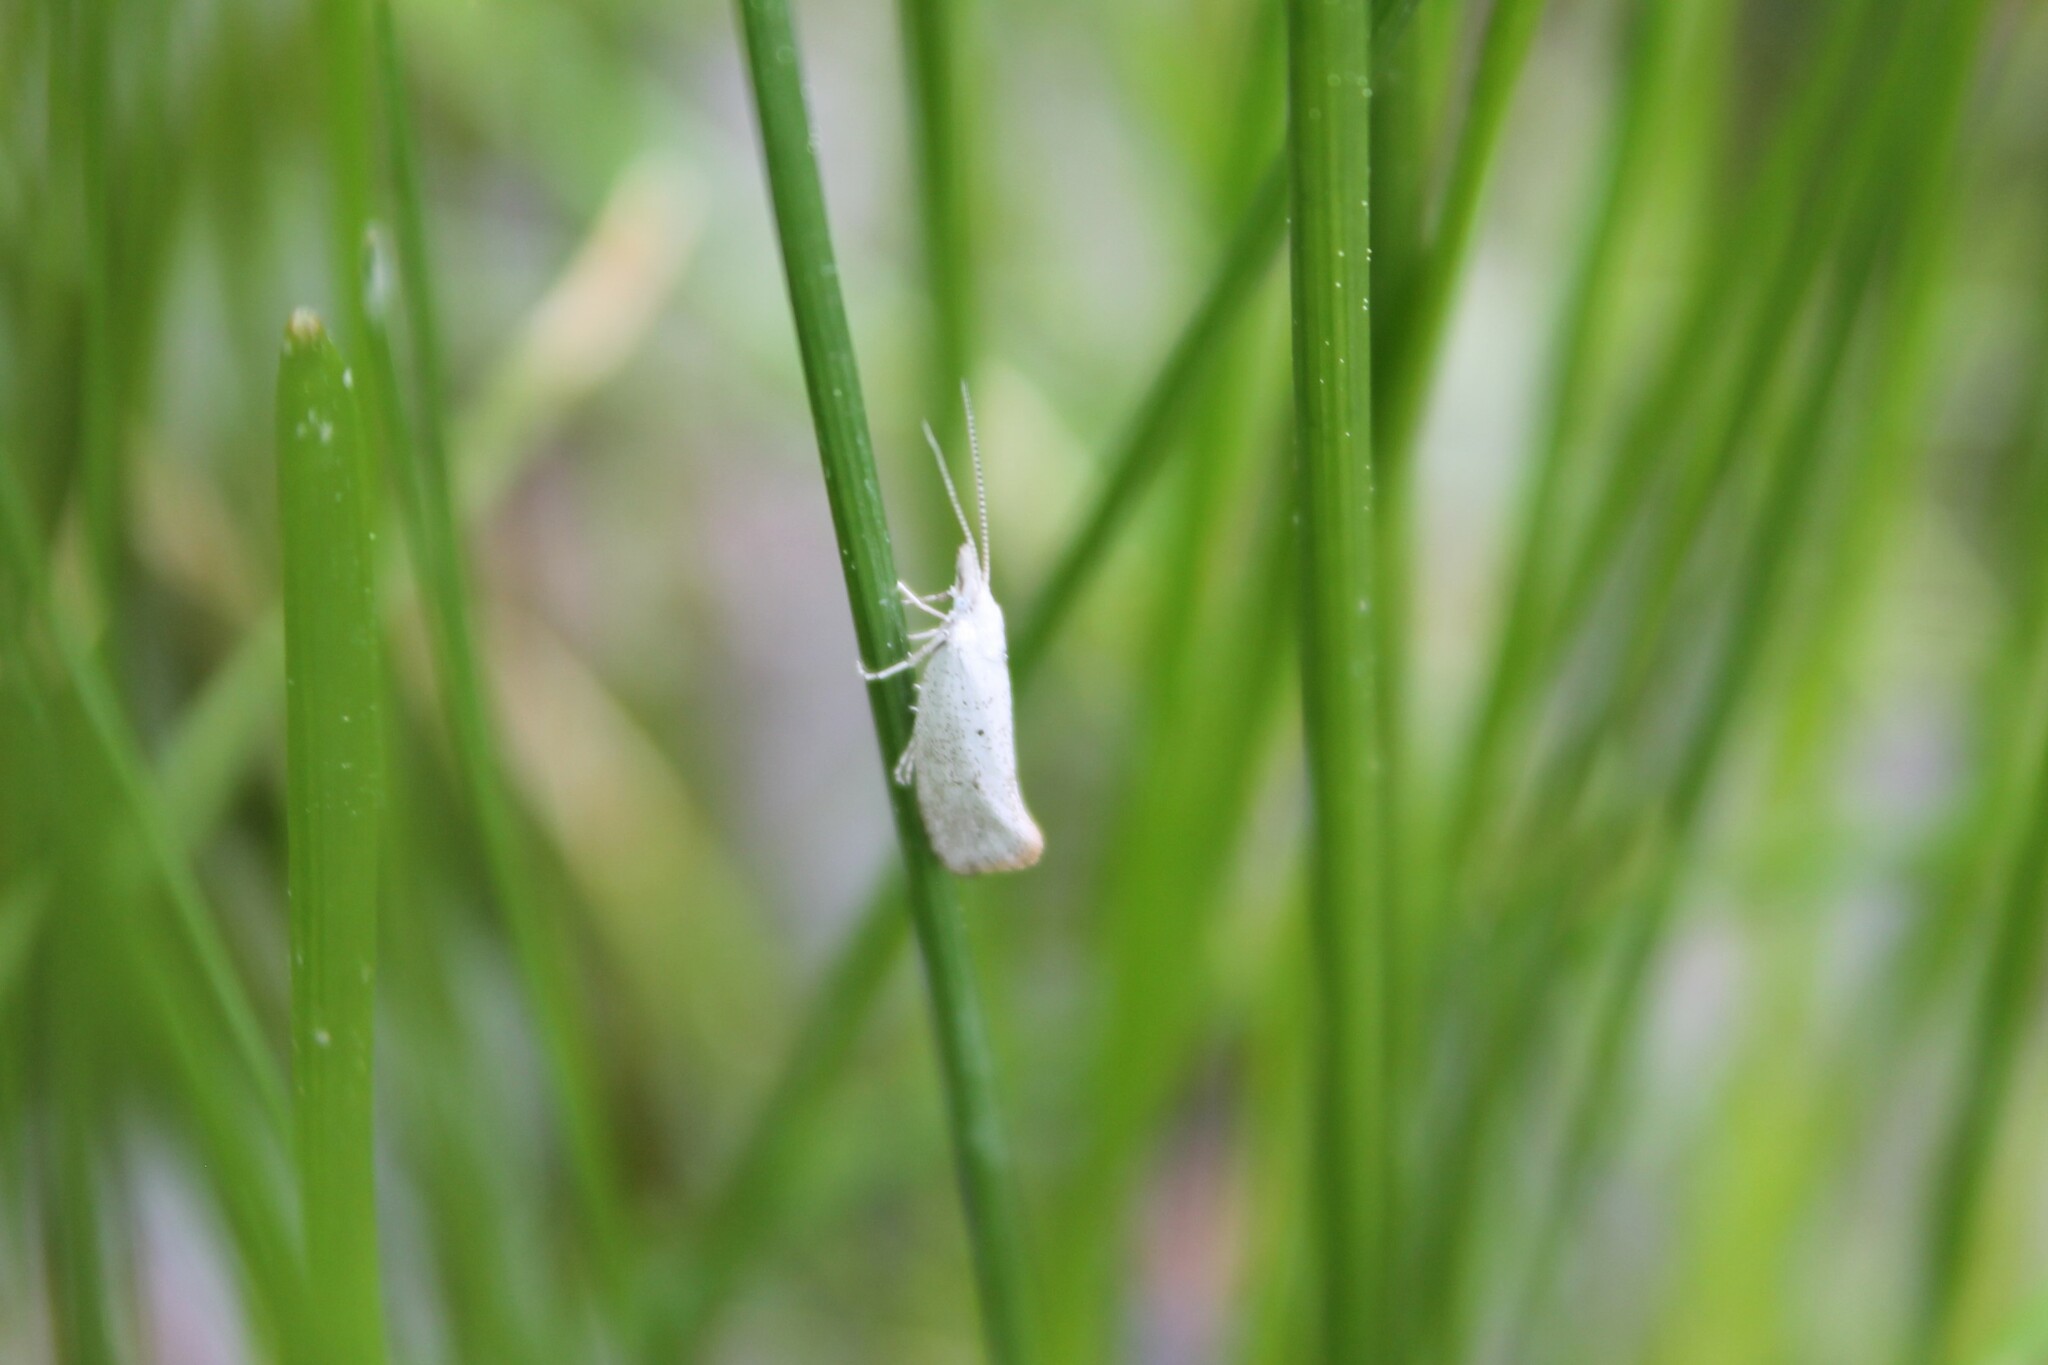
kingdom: Animalia
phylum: Arthropoda
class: Insecta
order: Lepidoptera
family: Ypsolophidae
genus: Euceratia
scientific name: Euceratia castella
